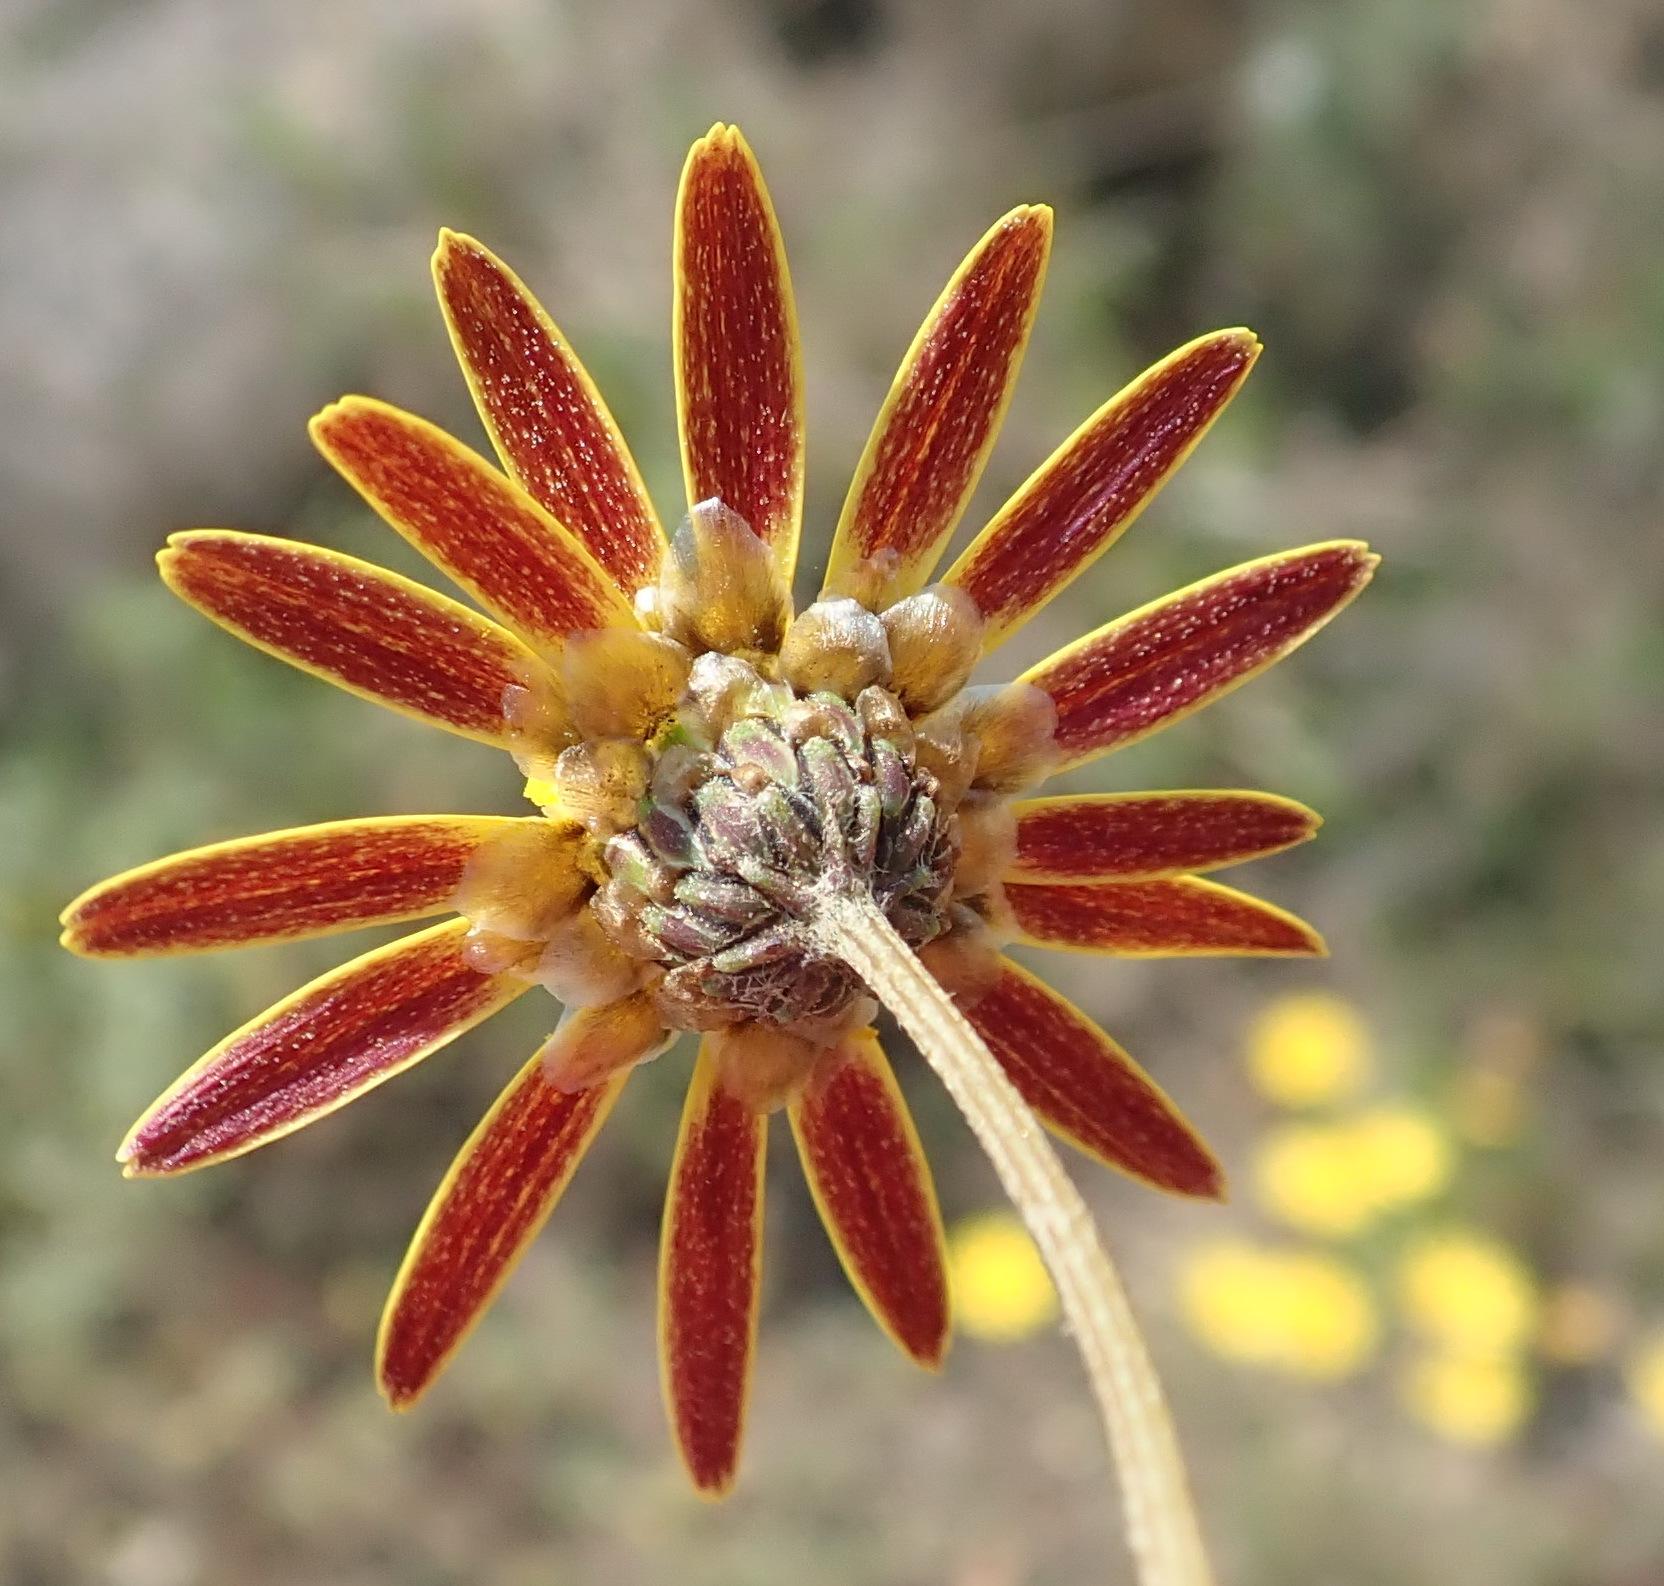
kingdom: Plantae
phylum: Tracheophyta
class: Magnoliopsida
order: Asterales
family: Asteraceae
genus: Ursinia
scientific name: Ursinia discolor
